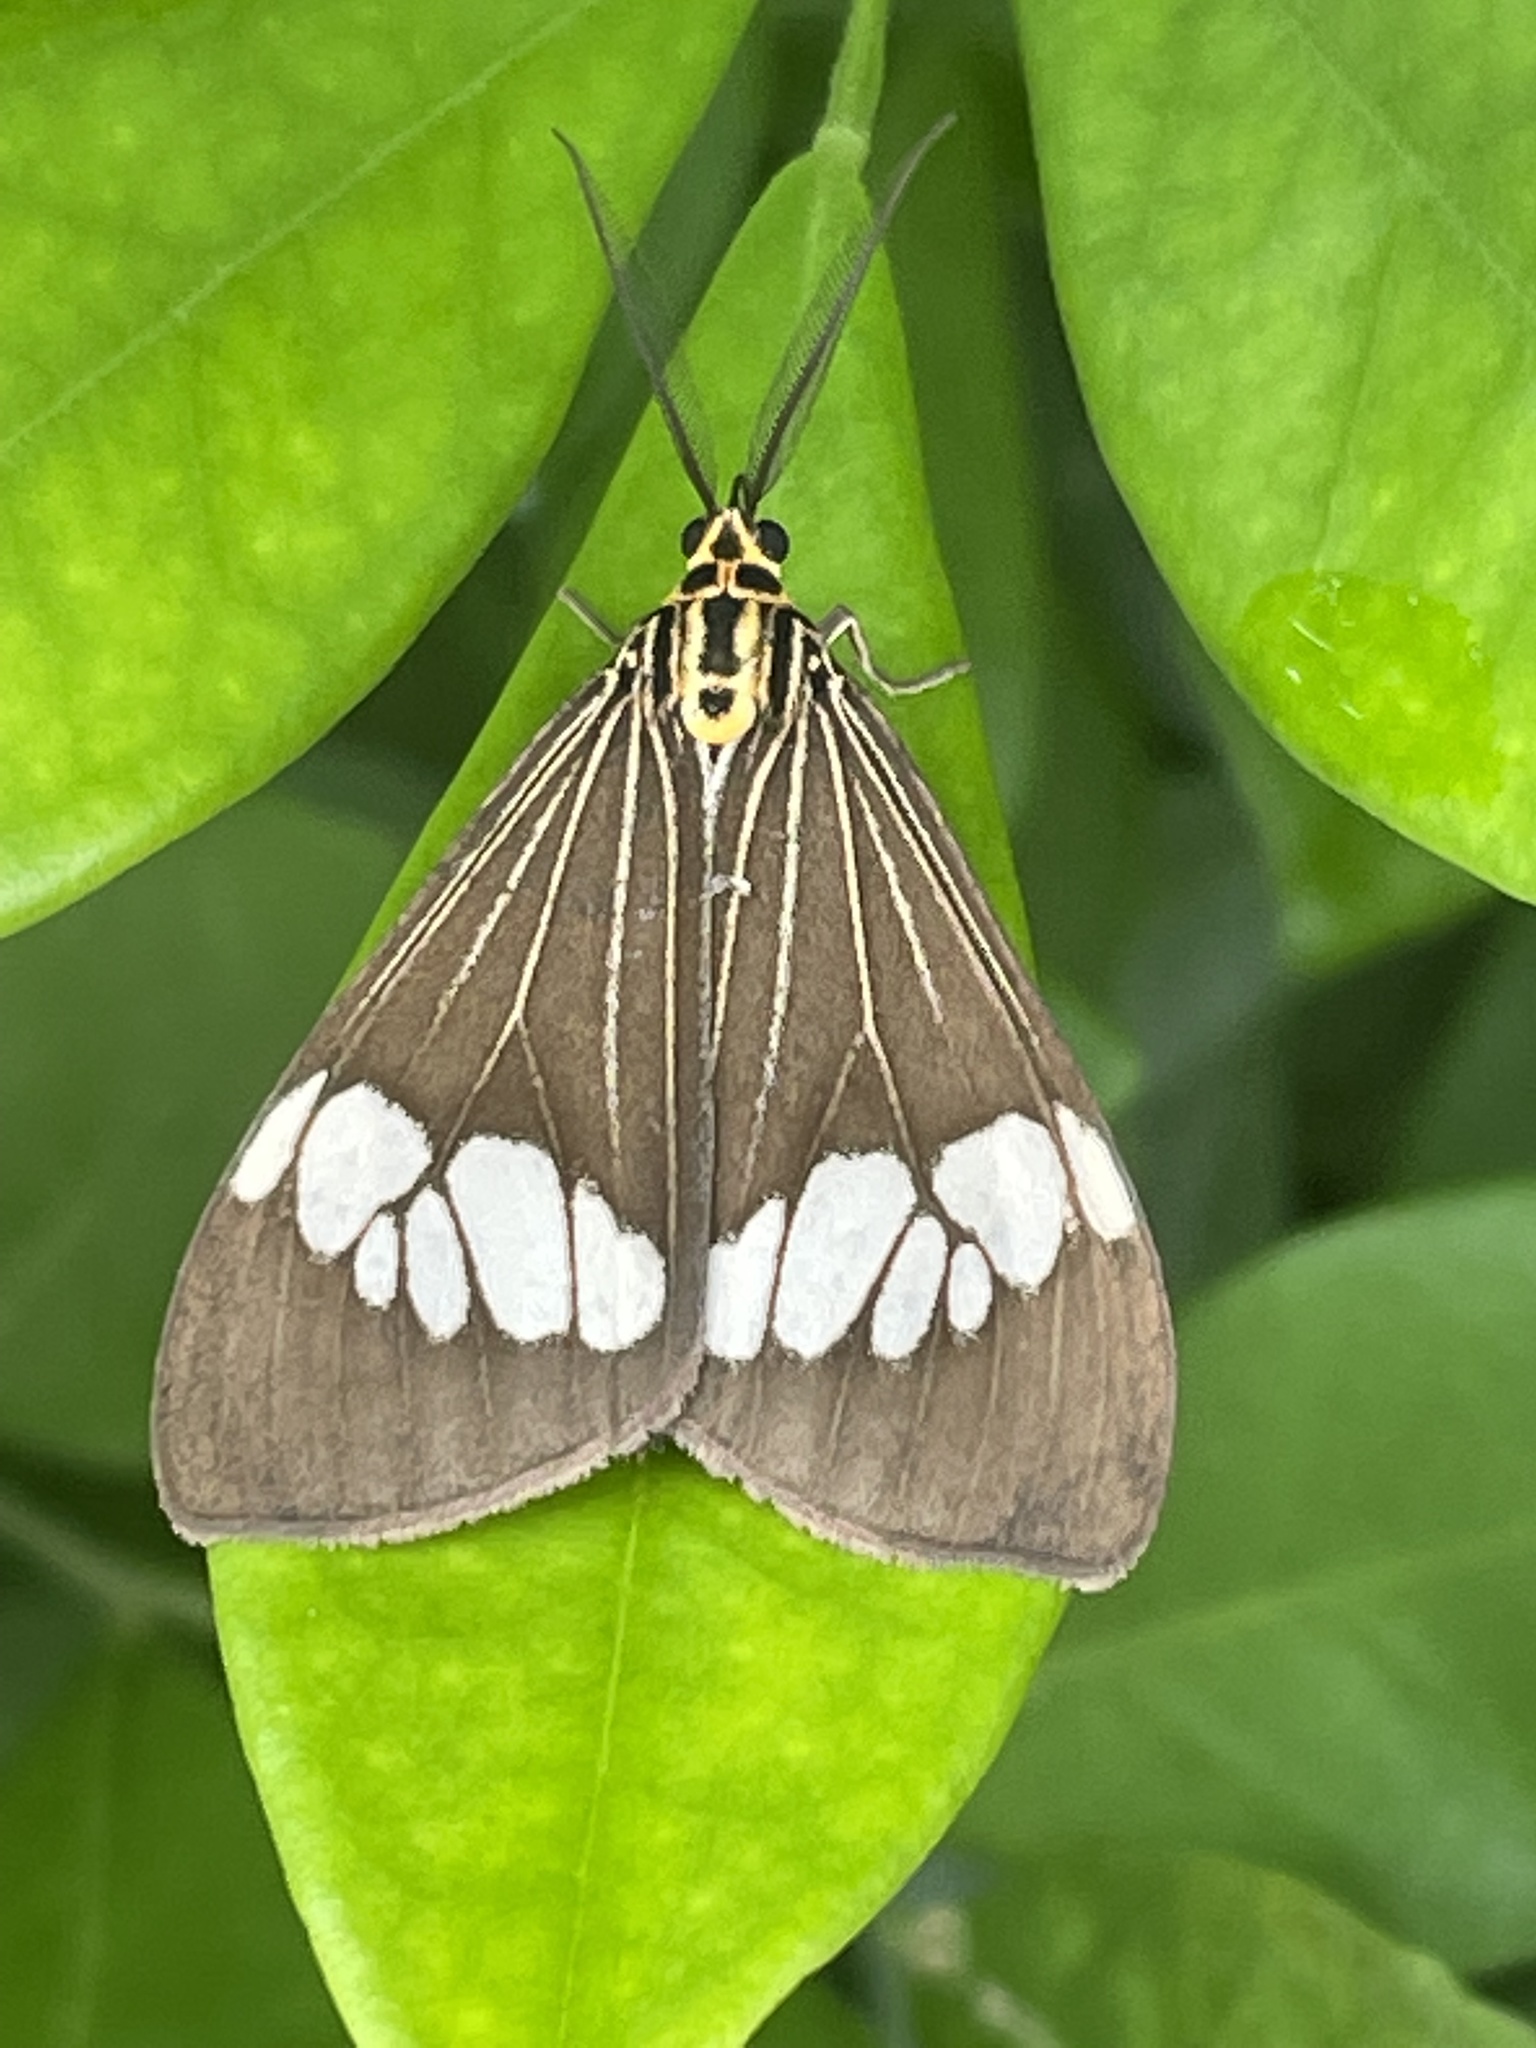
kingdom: Animalia
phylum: Arthropoda
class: Insecta
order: Lepidoptera
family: Erebidae
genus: Nyctemera
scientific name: Nyctemera baulus
